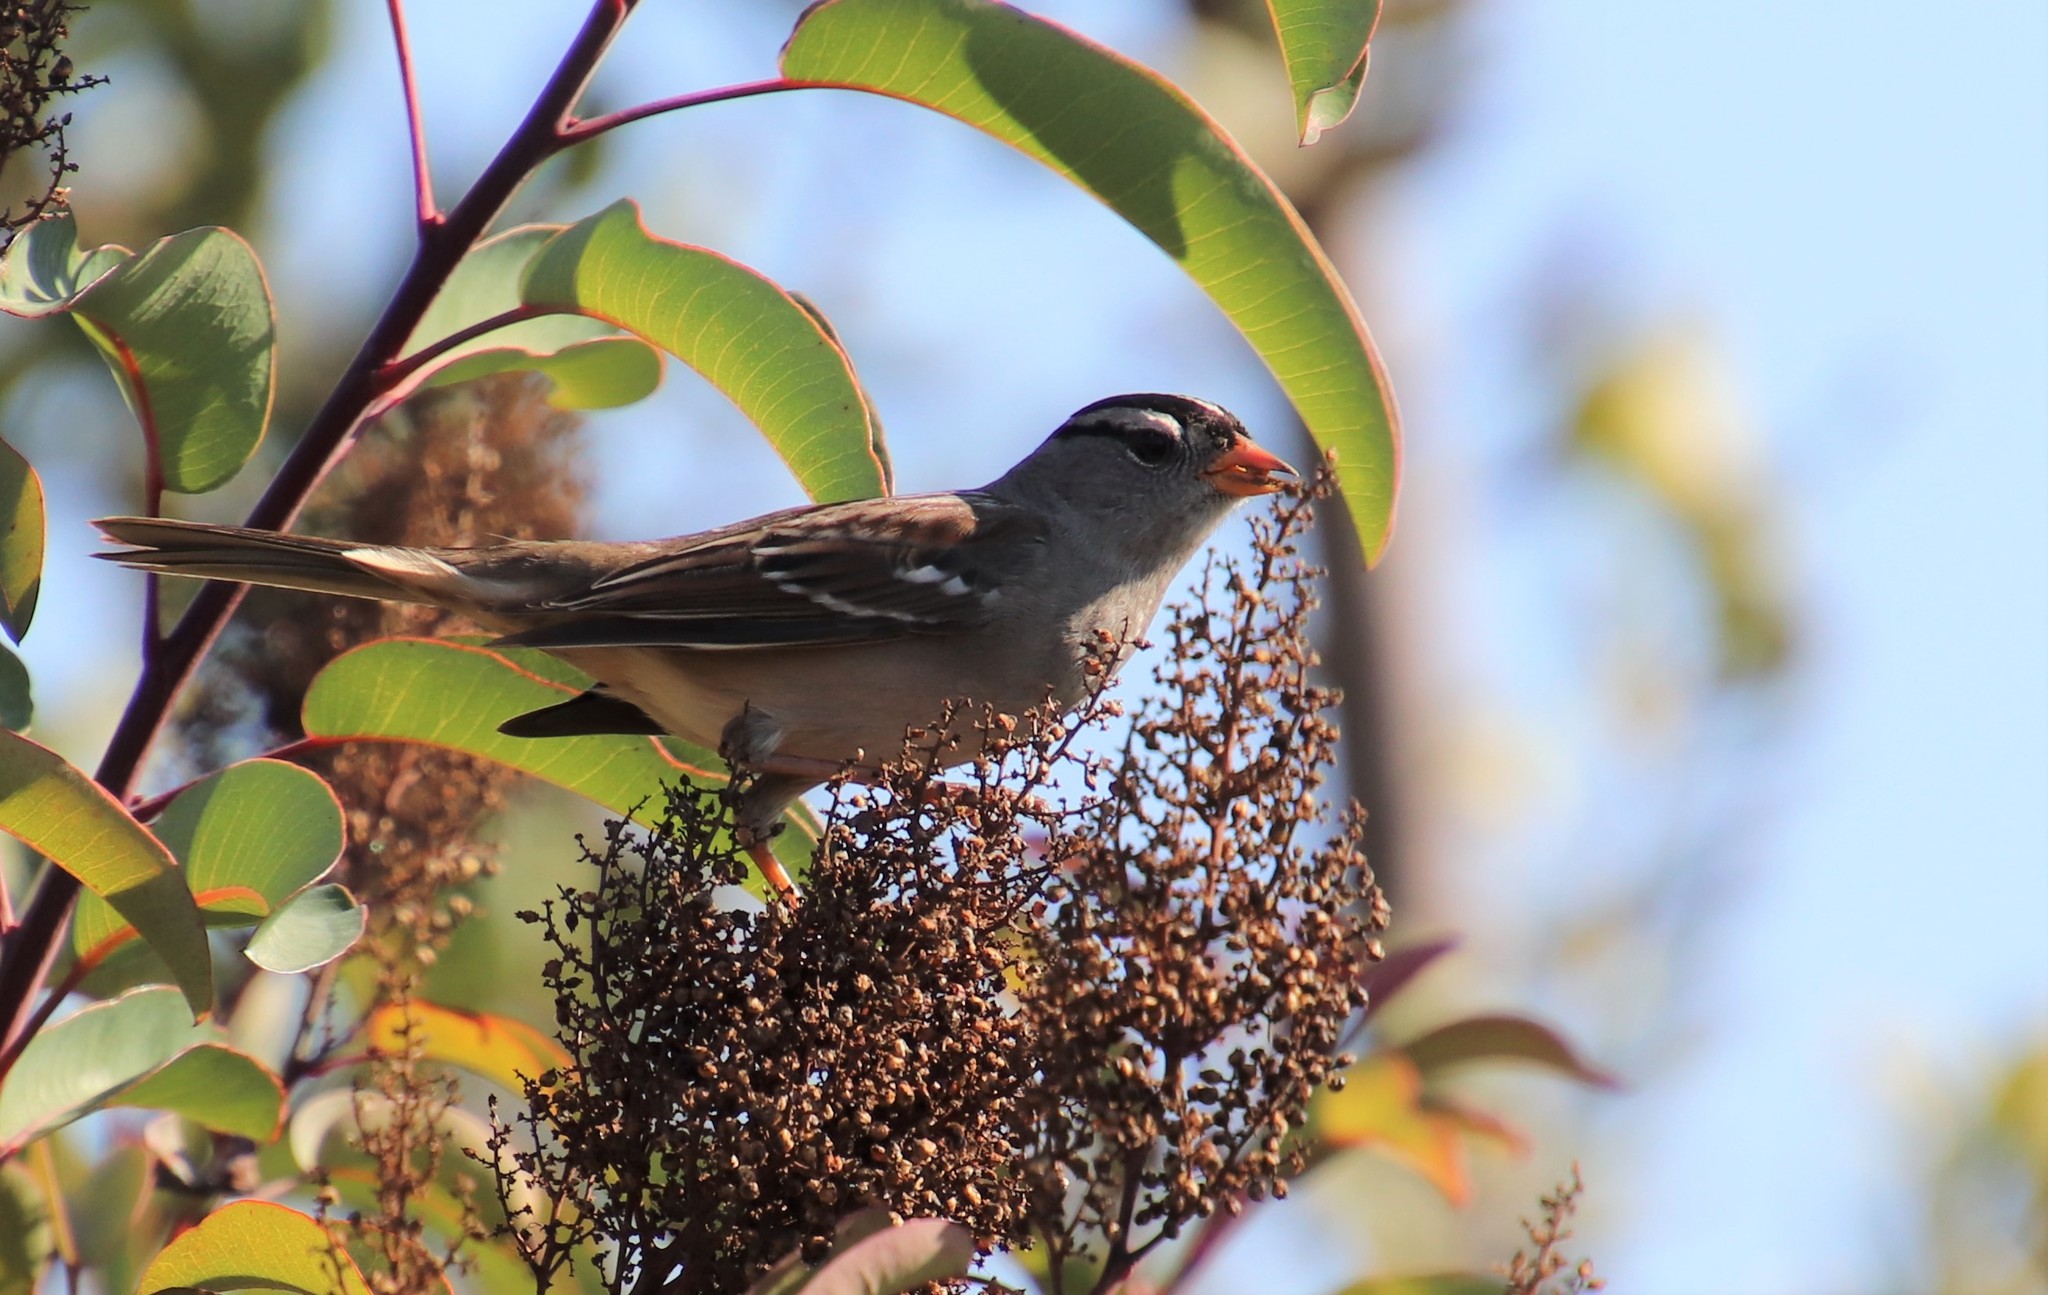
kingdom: Animalia
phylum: Chordata
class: Aves
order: Passeriformes
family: Passerellidae
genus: Zonotrichia
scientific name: Zonotrichia leucophrys
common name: White-crowned sparrow
